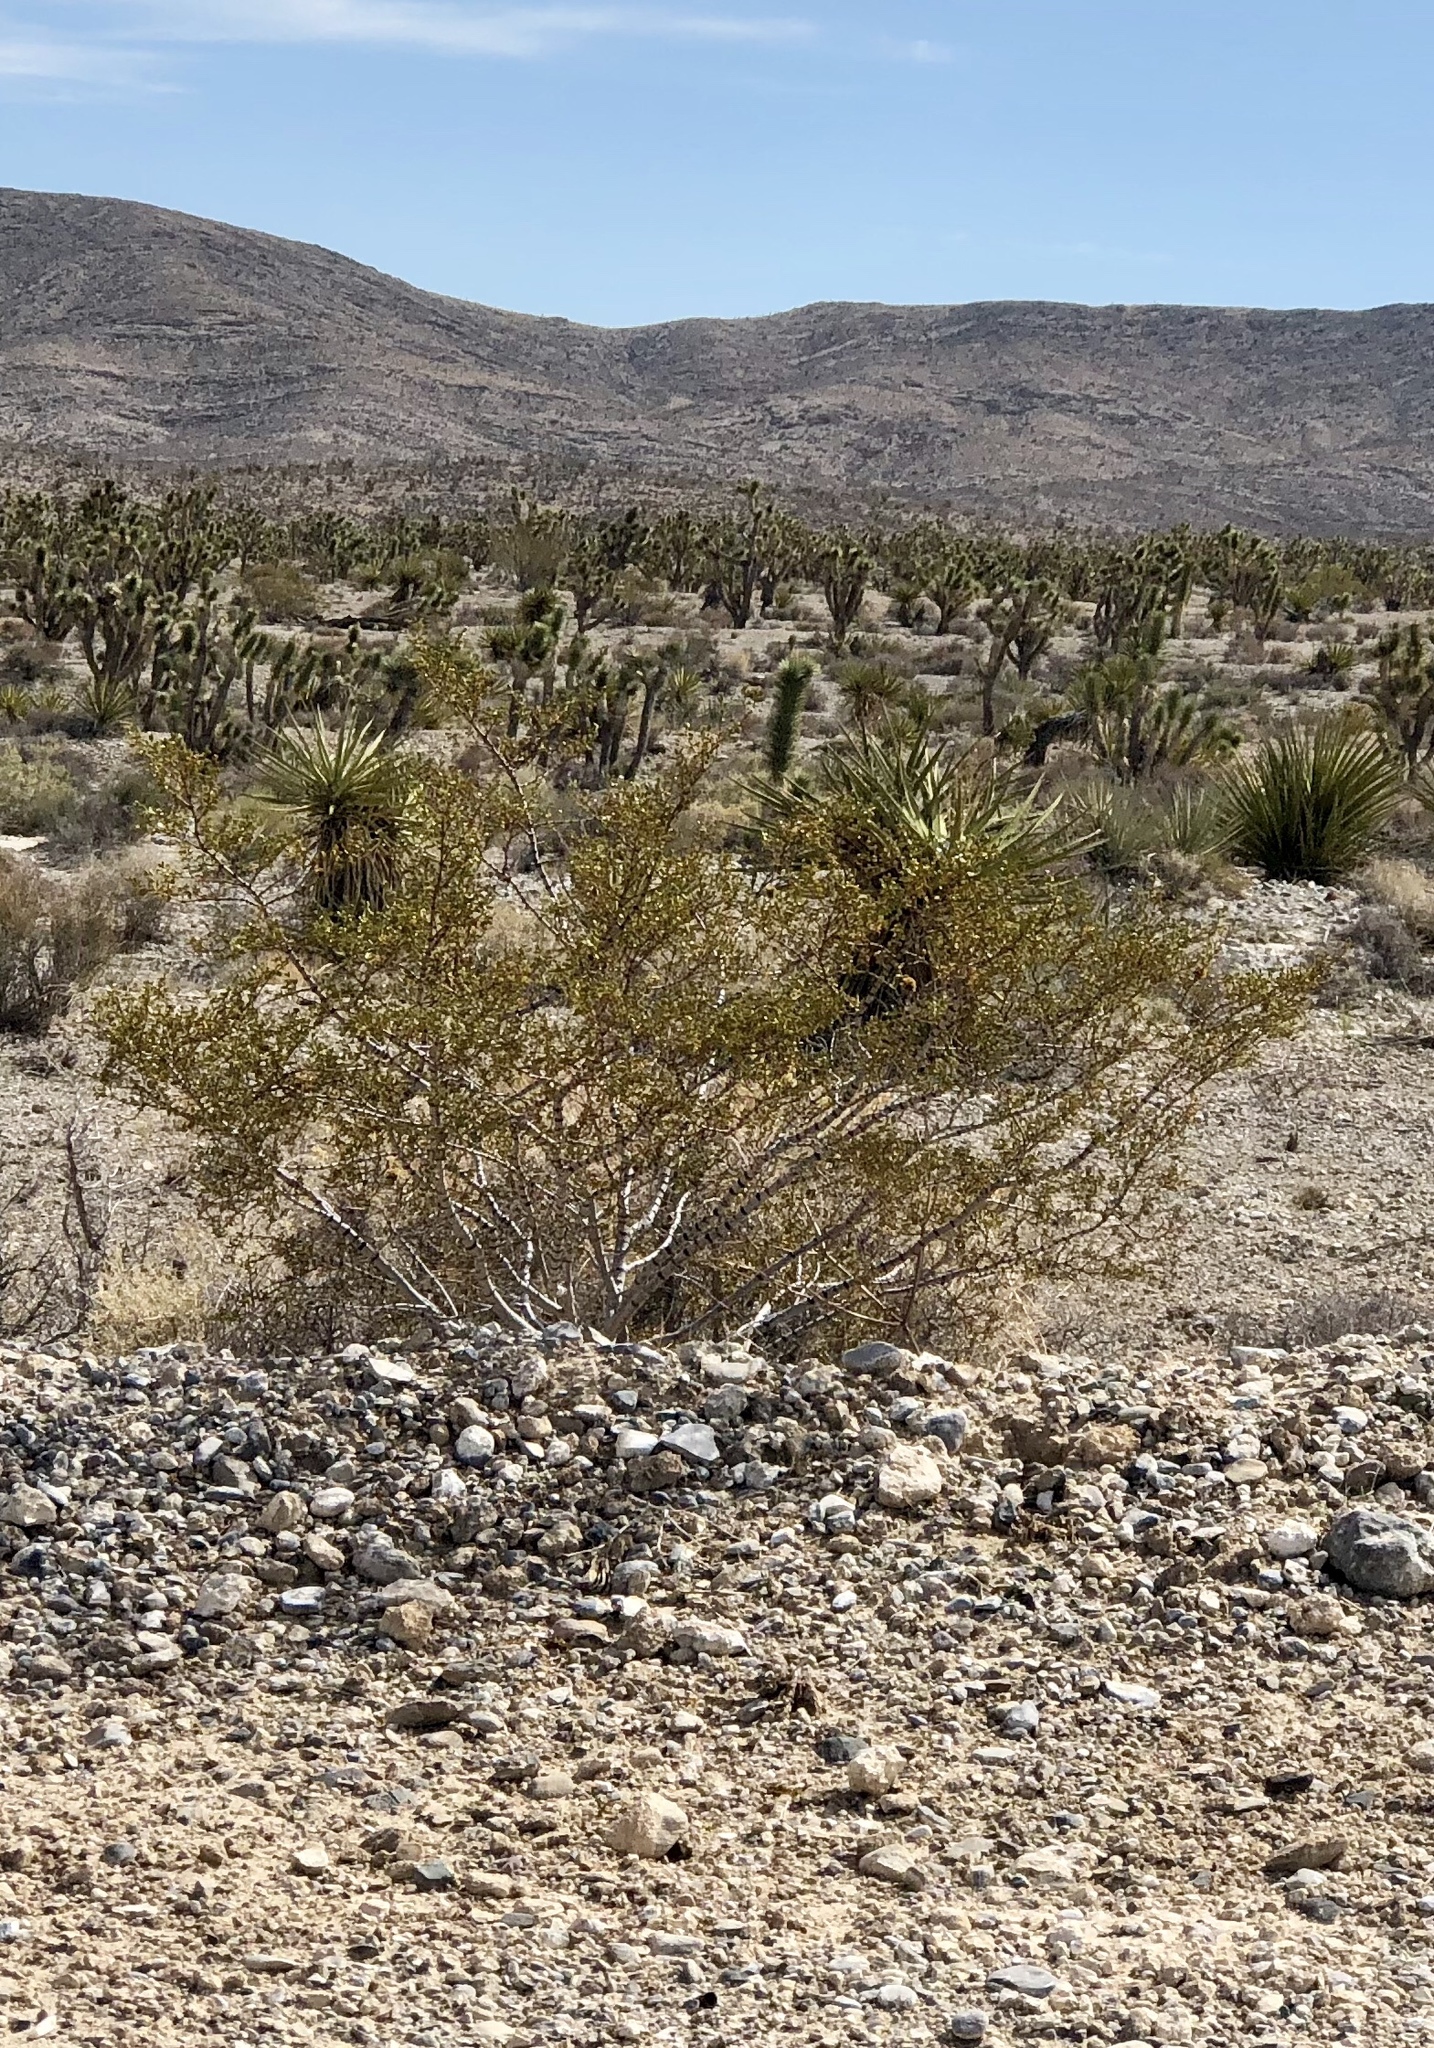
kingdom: Plantae
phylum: Tracheophyta
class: Magnoliopsida
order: Zygophyllales
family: Zygophyllaceae
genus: Larrea
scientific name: Larrea tridentata
